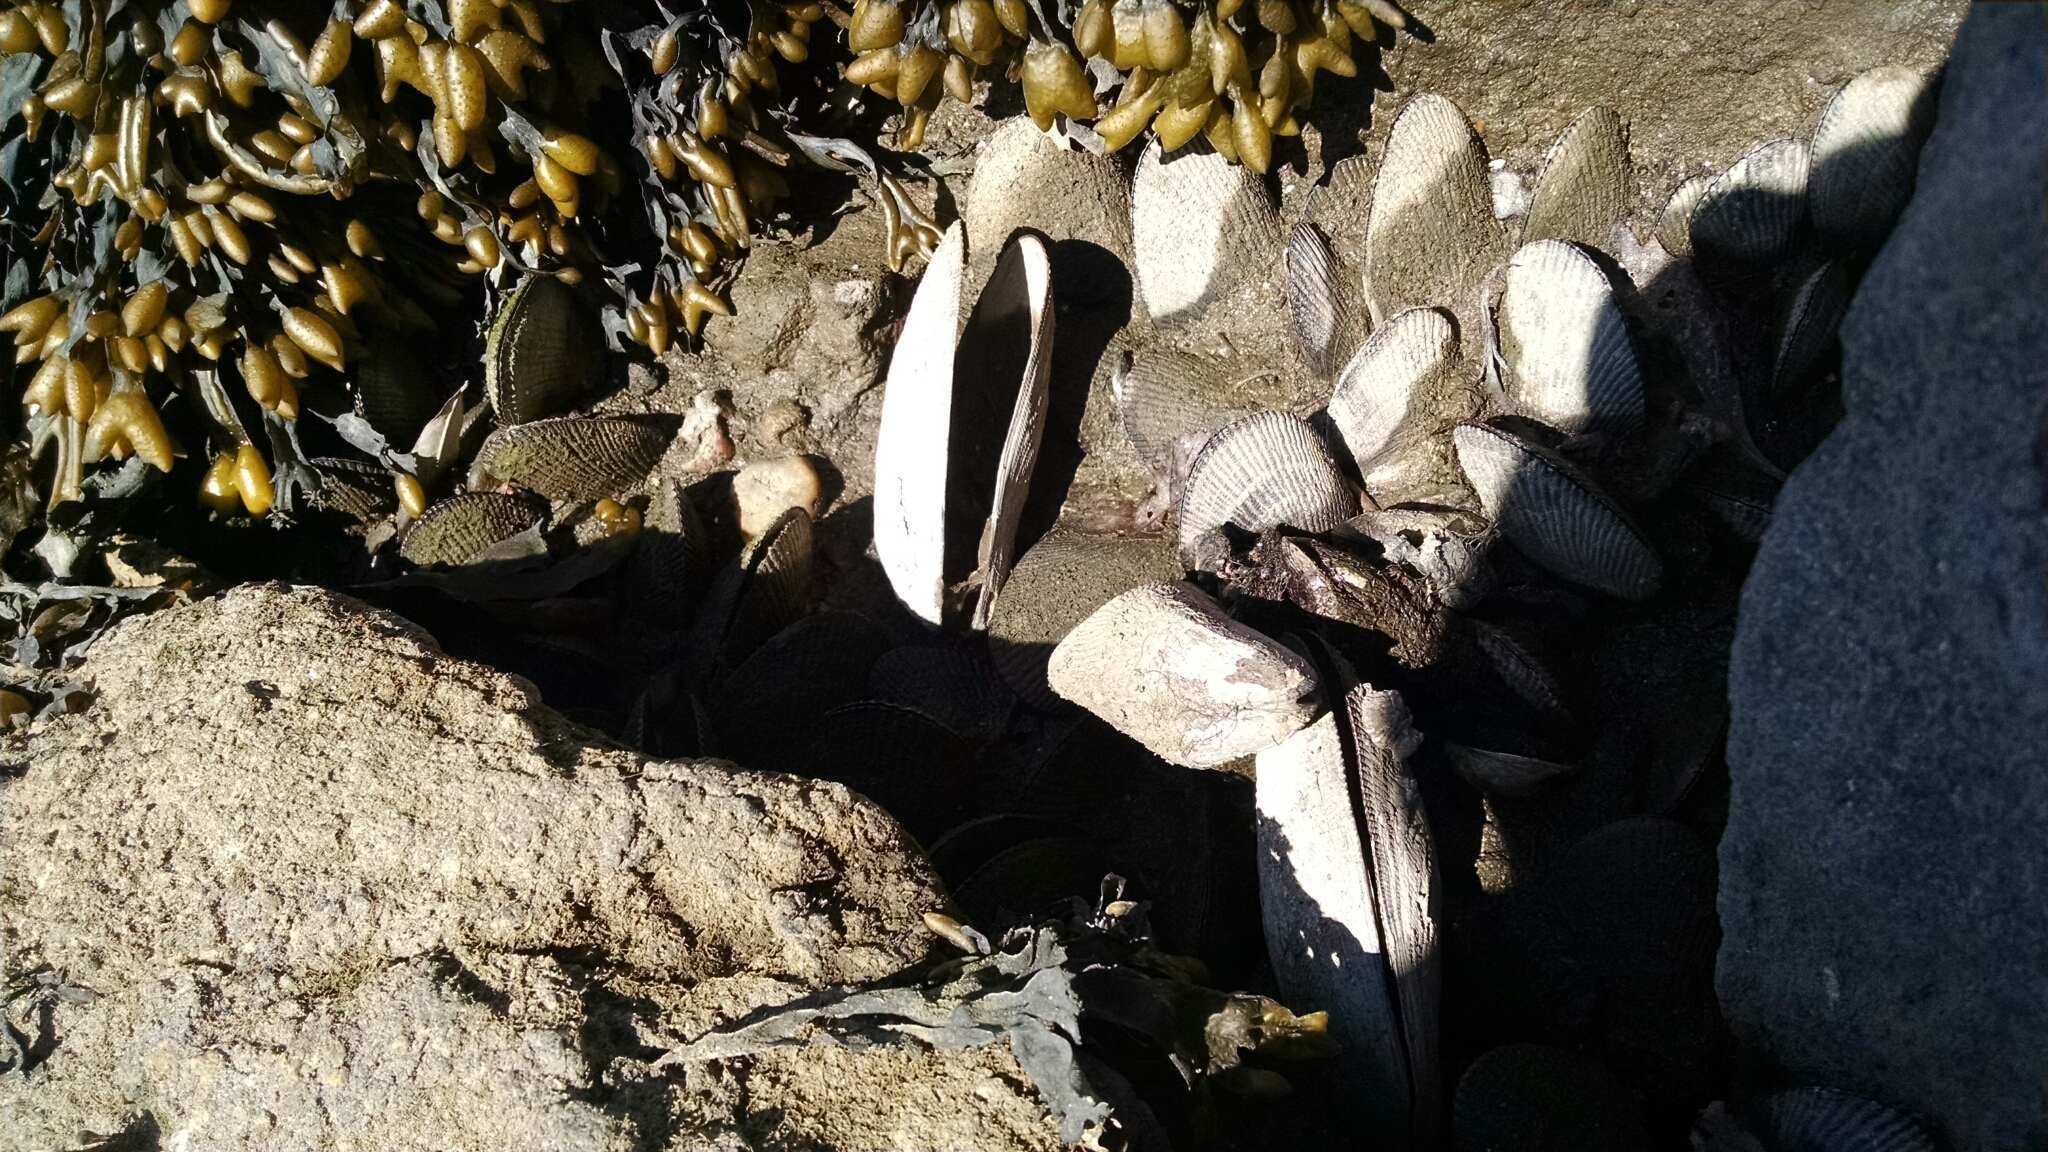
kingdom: Animalia
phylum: Mollusca
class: Bivalvia
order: Mytilida
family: Mytilidae
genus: Geukensia
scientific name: Geukensia demissa
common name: Ribbed mussel
